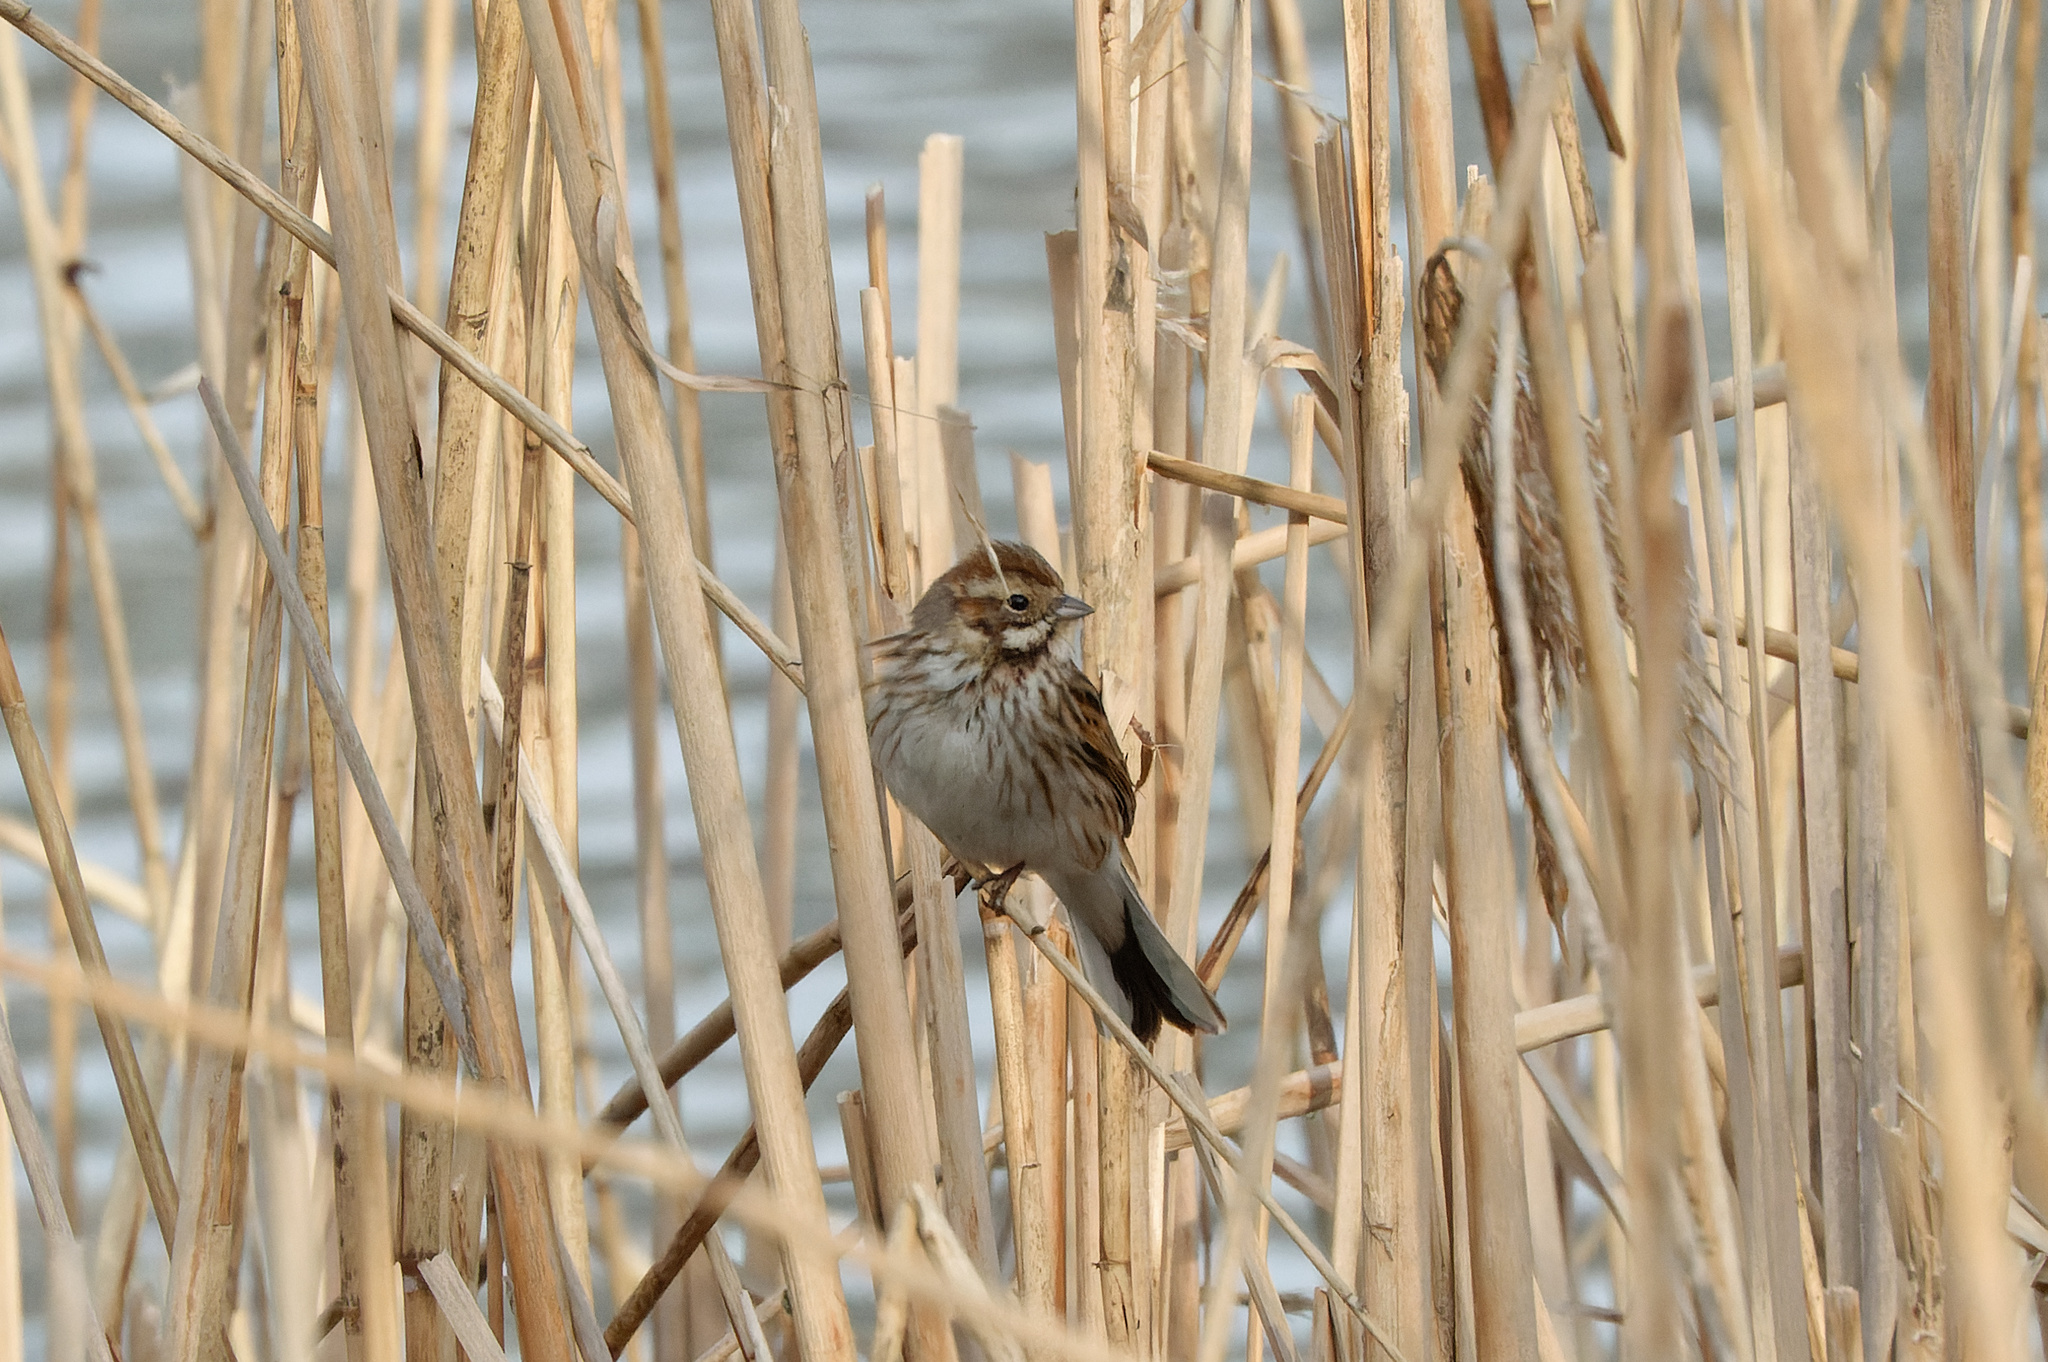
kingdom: Animalia
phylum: Chordata
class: Aves
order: Passeriformes
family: Emberizidae
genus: Emberiza
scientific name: Emberiza schoeniclus
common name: Reed bunting
